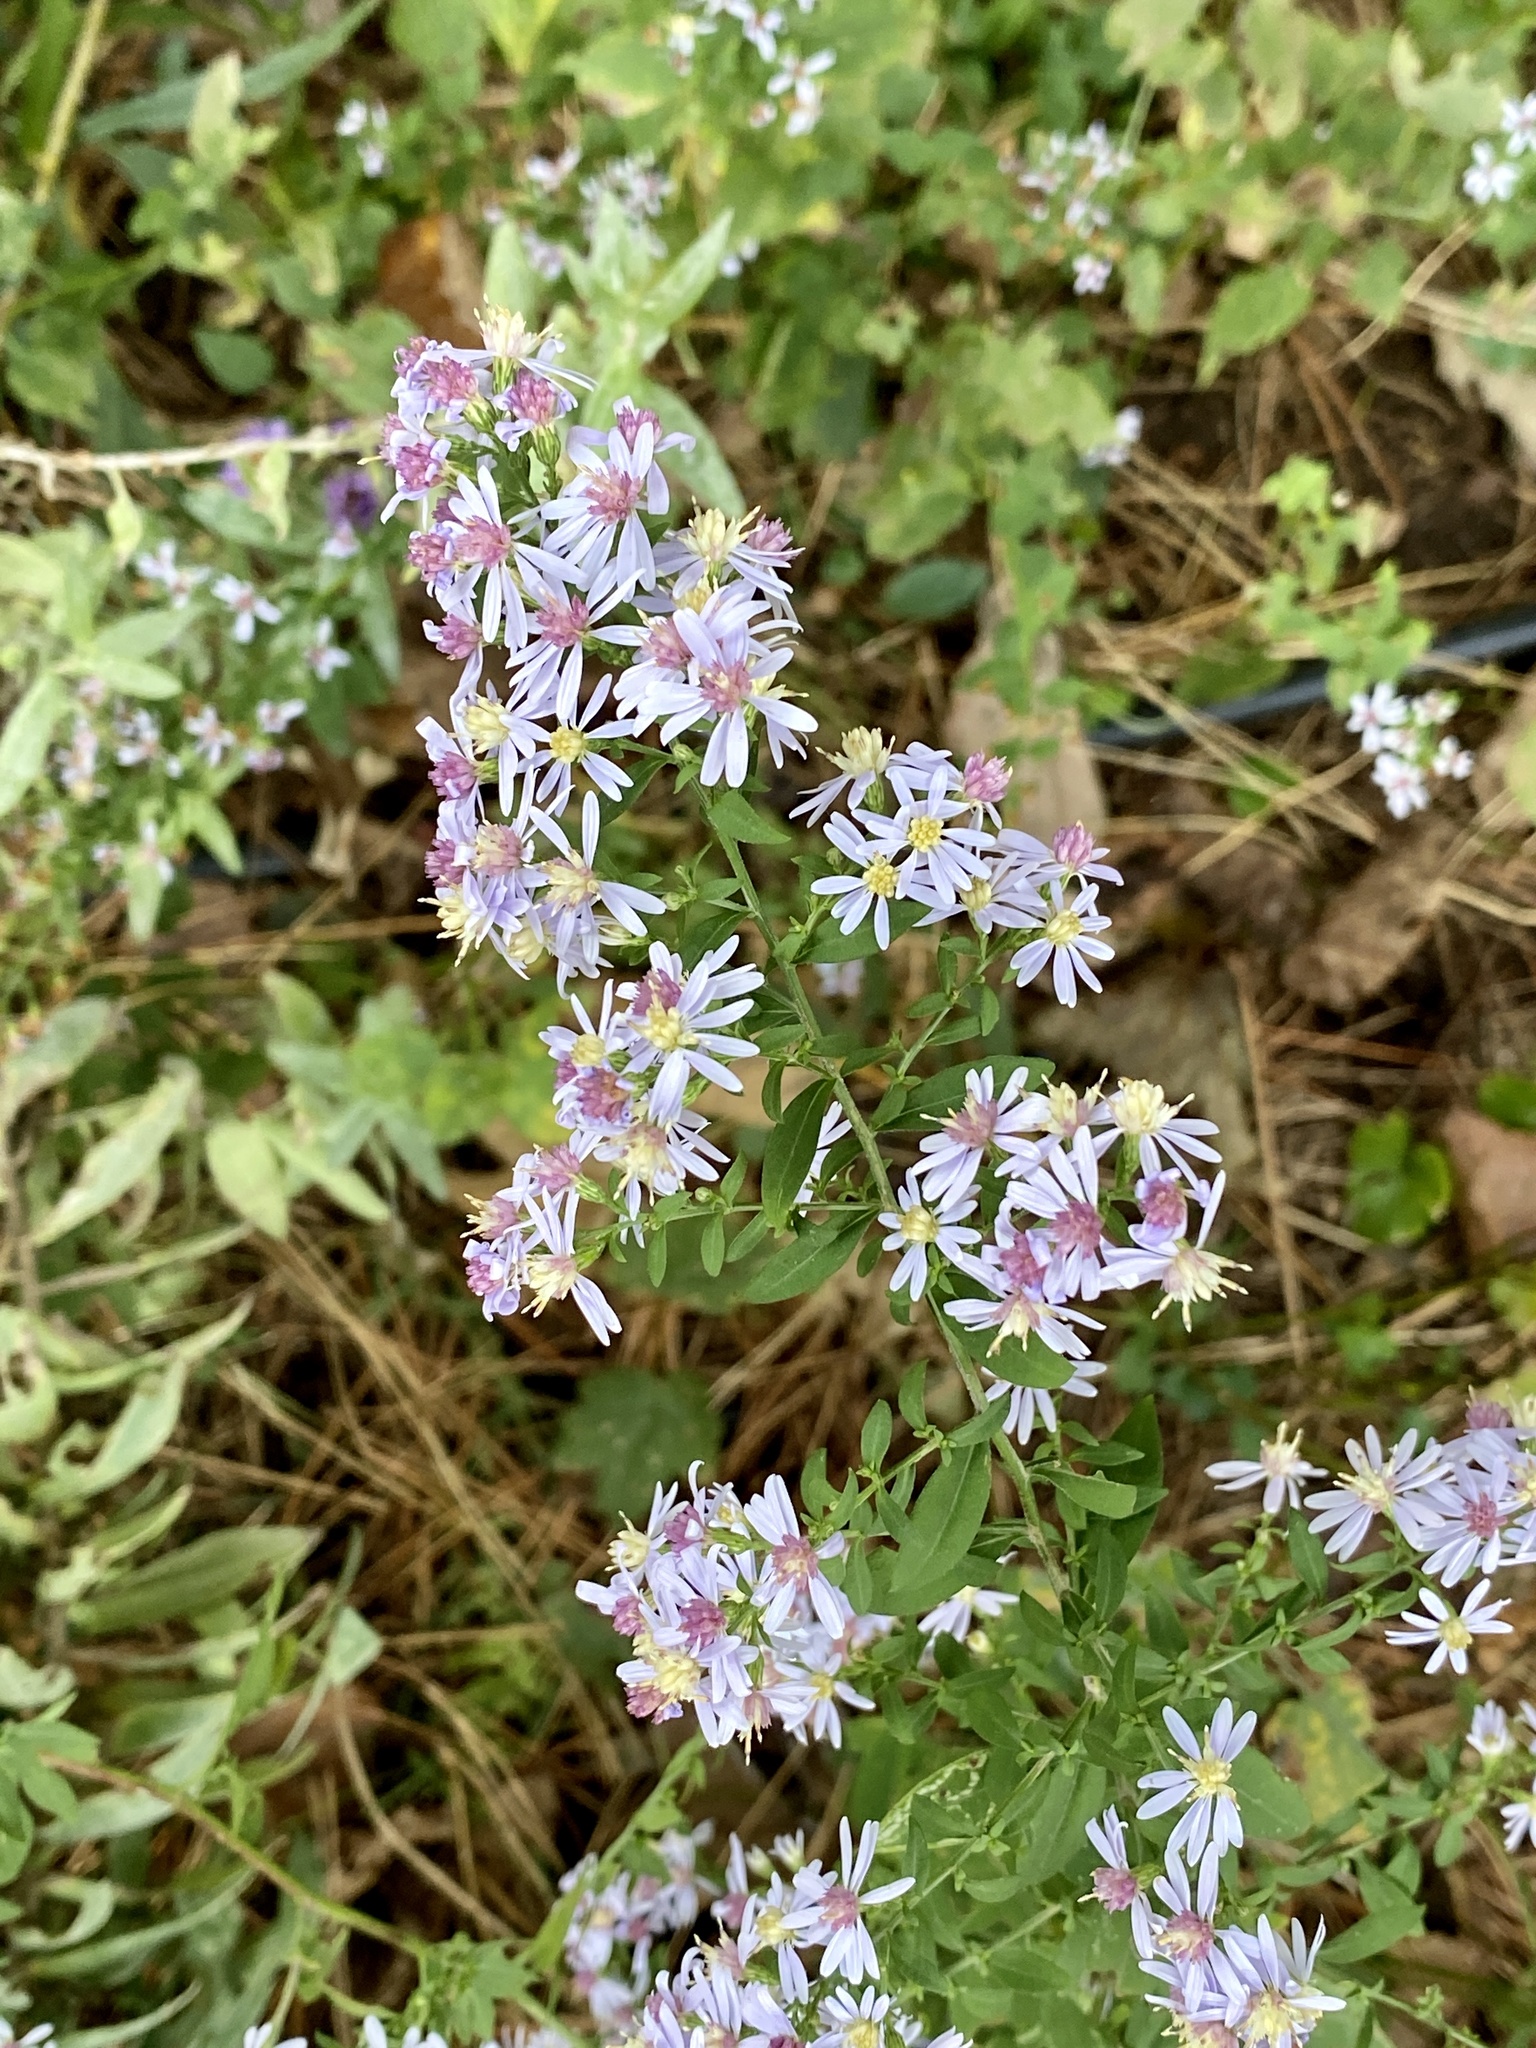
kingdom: Plantae
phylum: Tracheophyta
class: Magnoliopsida
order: Asterales
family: Asteraceae
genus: Symphyotrichum
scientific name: Symphyotrichum cordifolium
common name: Beeweed
